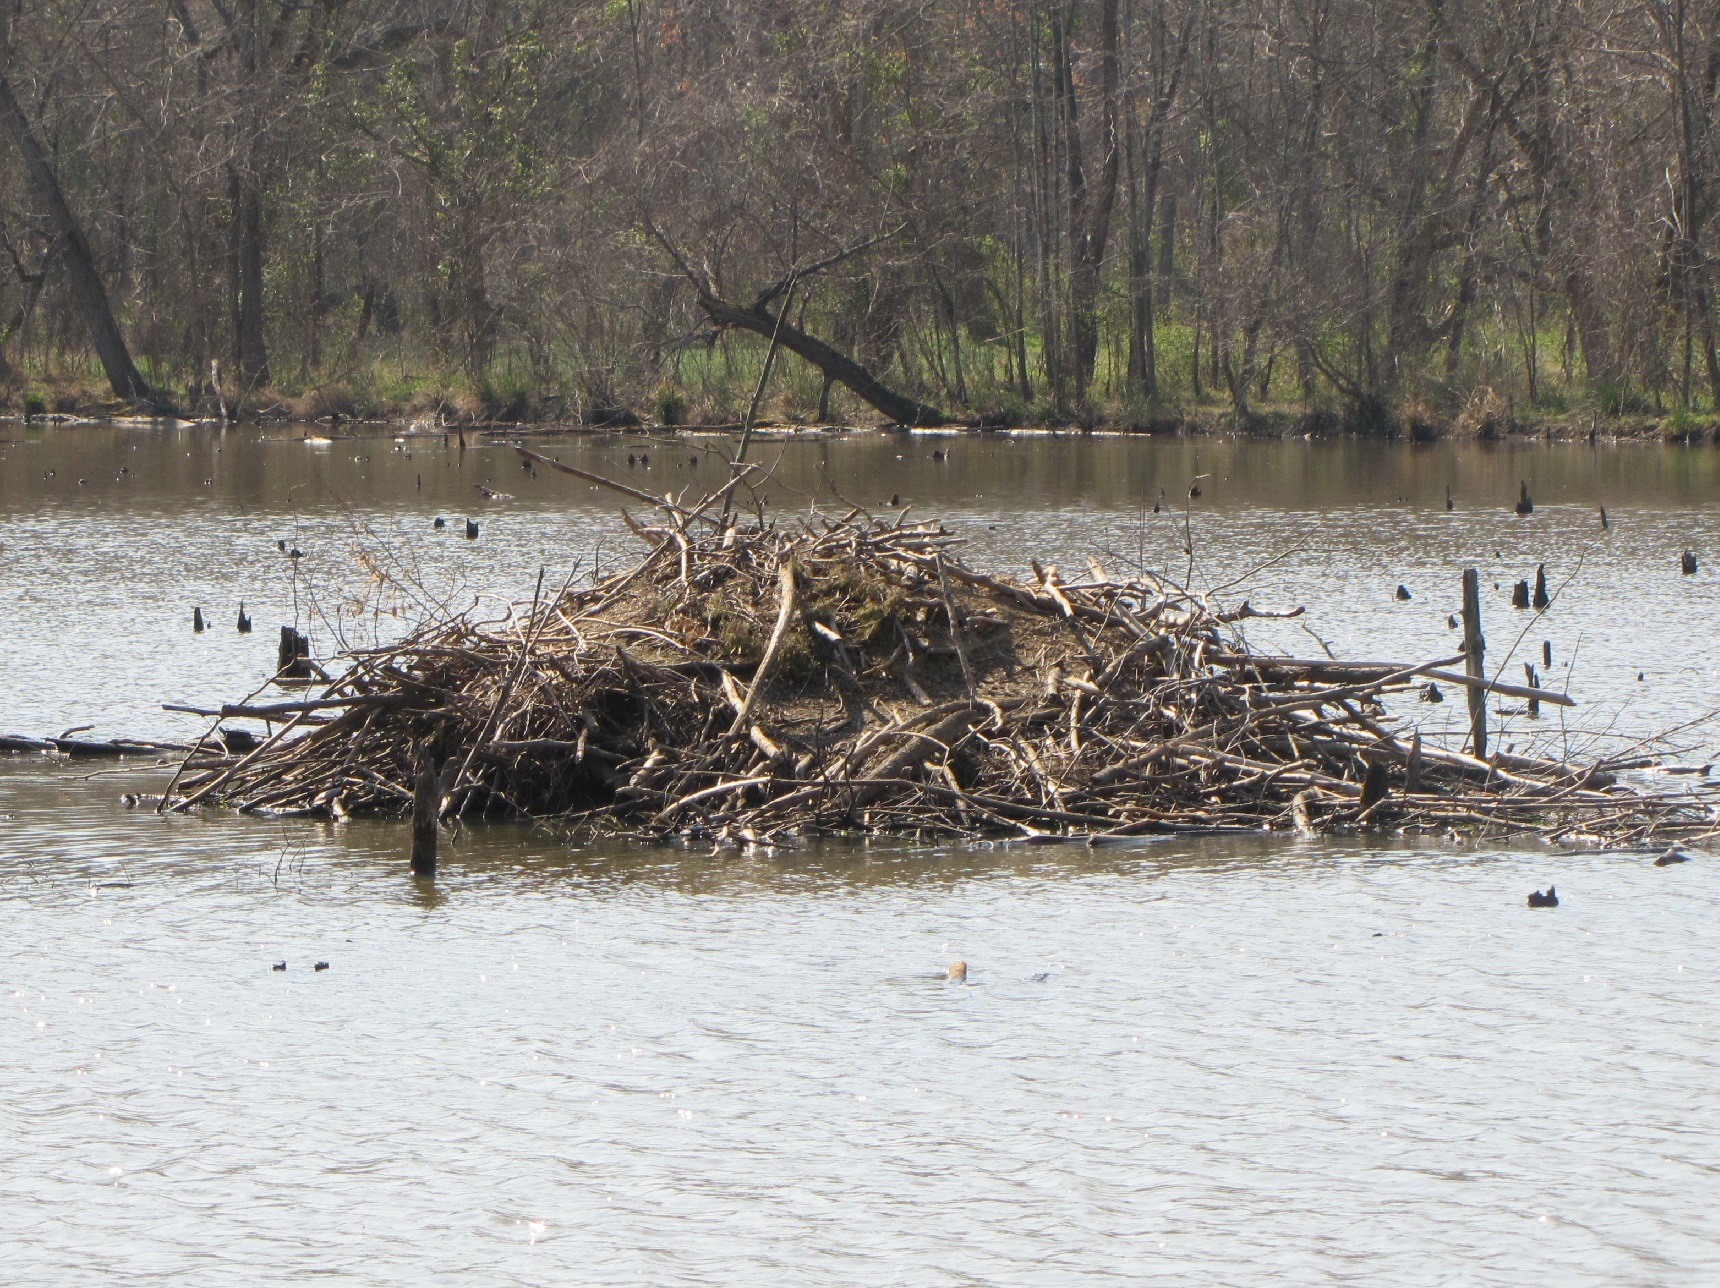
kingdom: Animalia
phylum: Chordata
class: Mammalia
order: Rodentia
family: Castoridae
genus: Castor
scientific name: Castor canadensis
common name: American beaver
